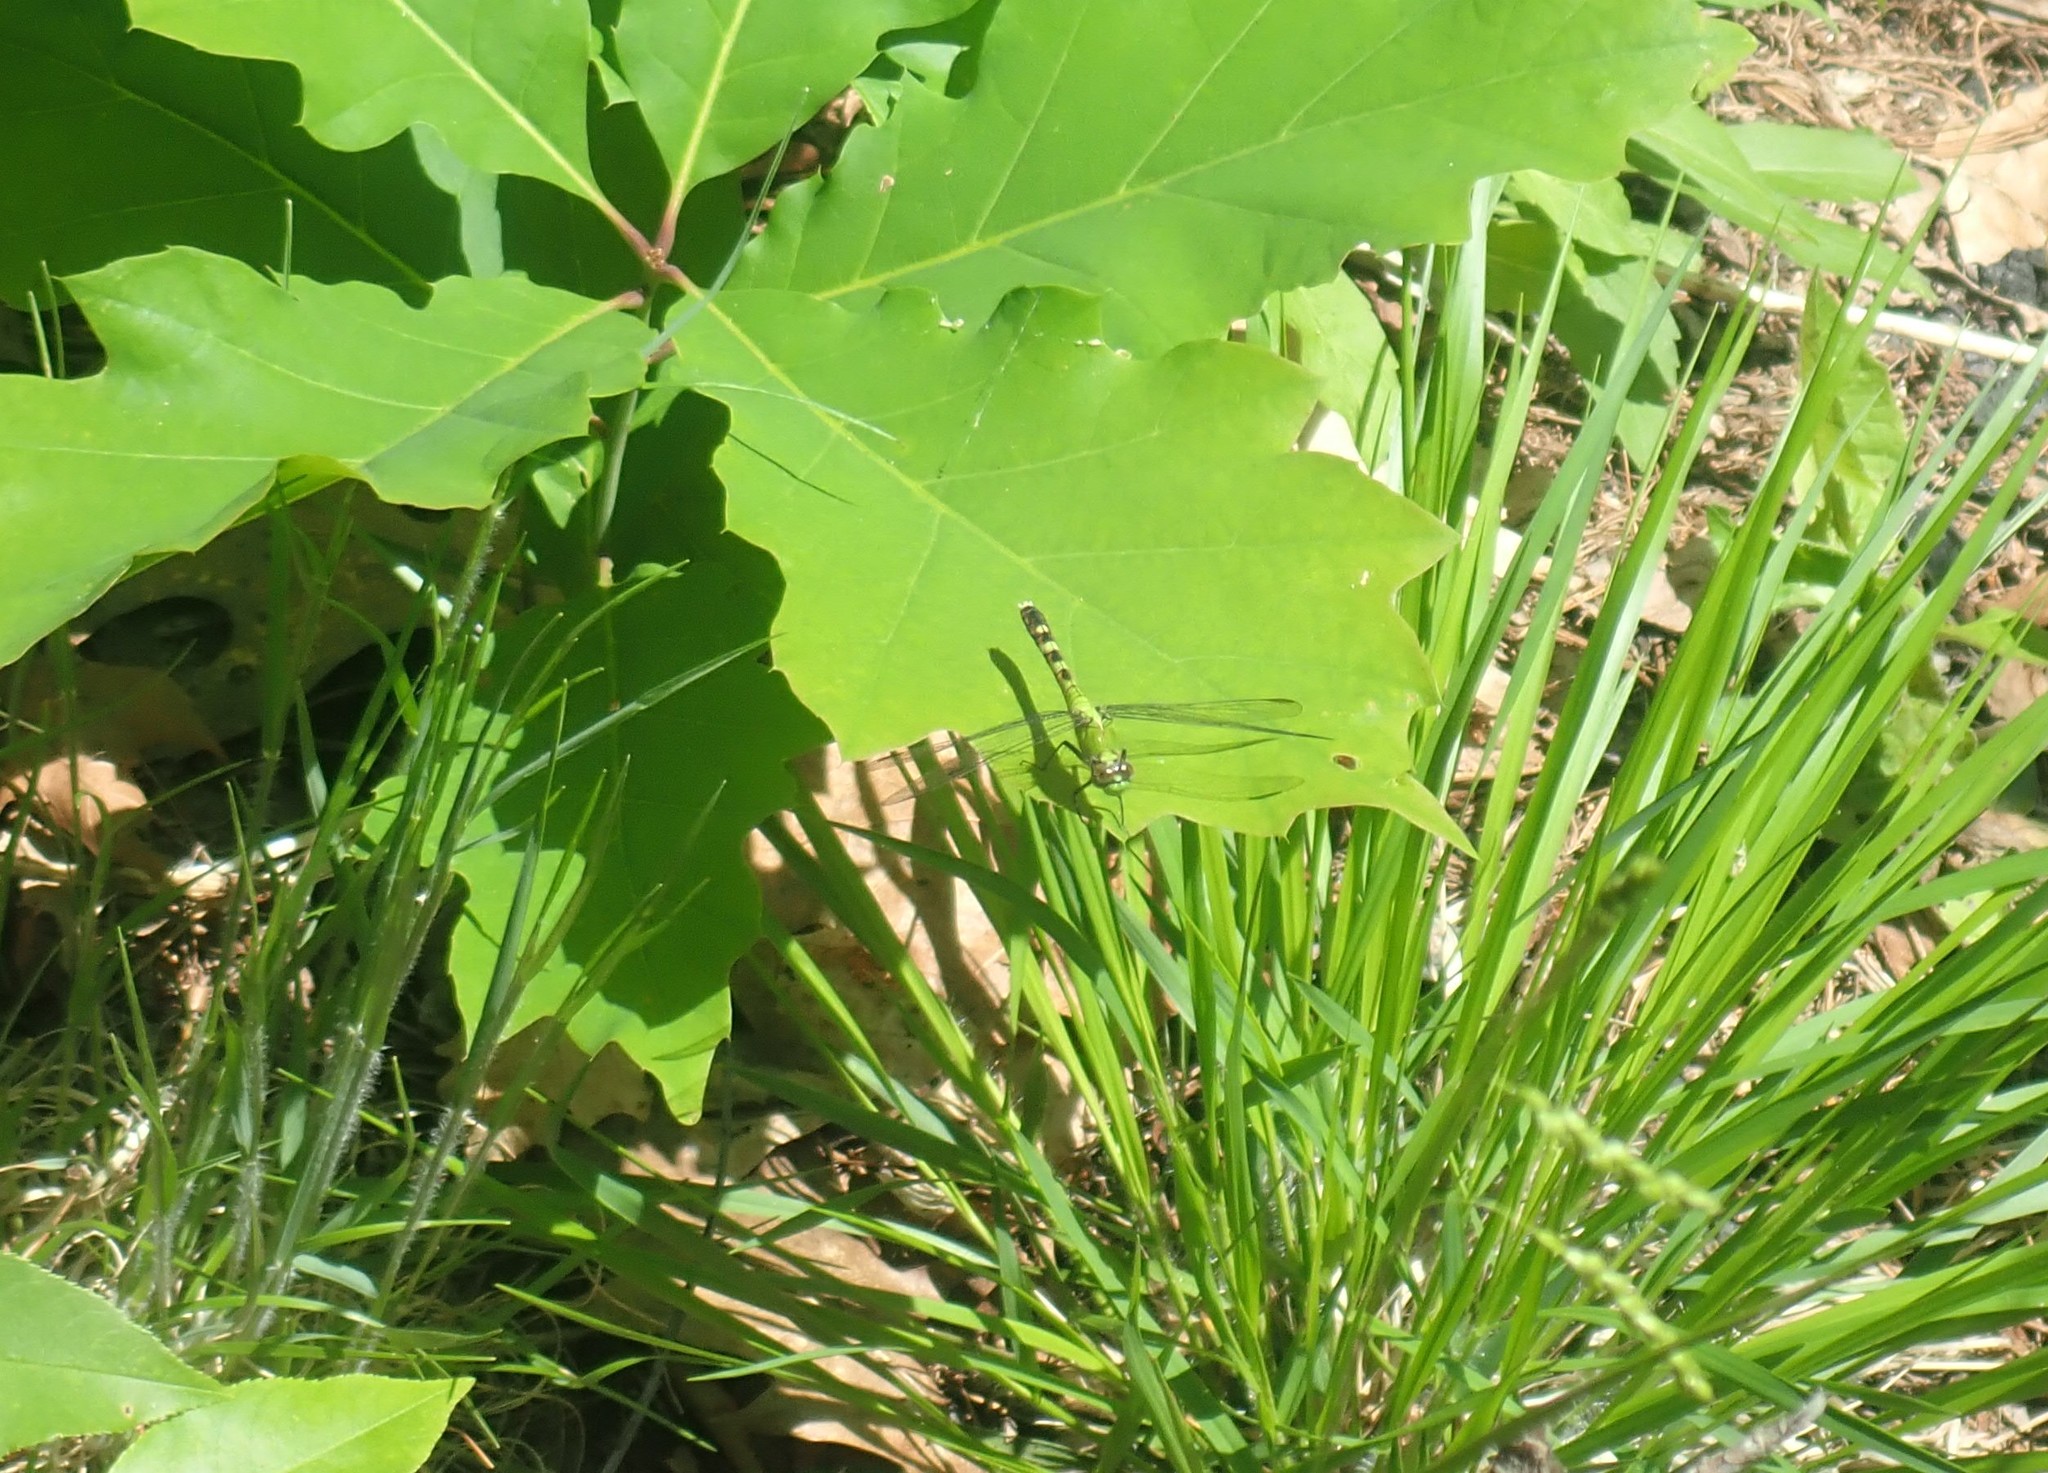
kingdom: Animalia
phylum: Arthropoda
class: Insecta
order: Odonata
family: Libellulidae
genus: Erythemis
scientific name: Erythemis simplicicollis
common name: Eastern pondhawk
